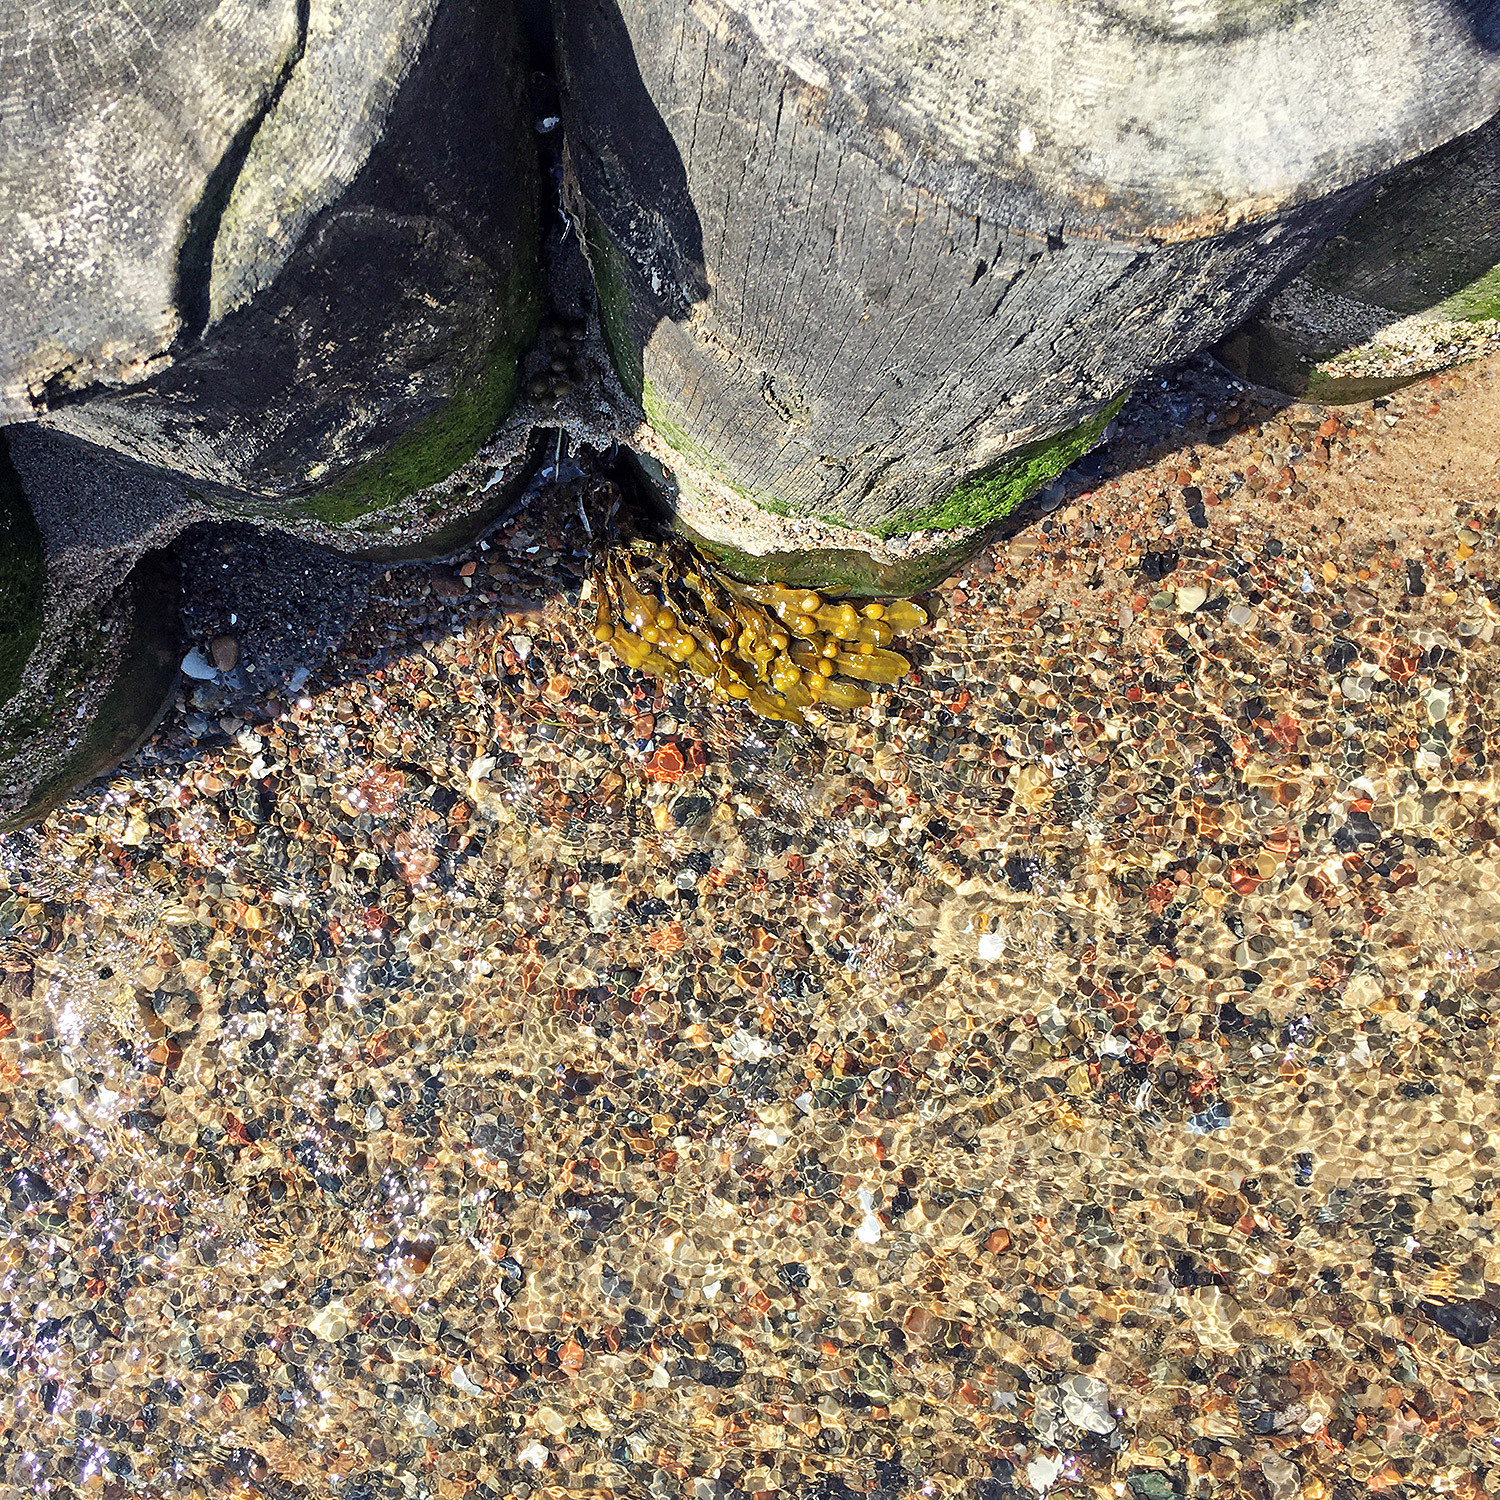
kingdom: Chromista
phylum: Ochrophyta
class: Phaeophyceae
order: Fucales
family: Fucaceae
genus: Fucus
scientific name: Fucus vesiculosus
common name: Bladder wrack
